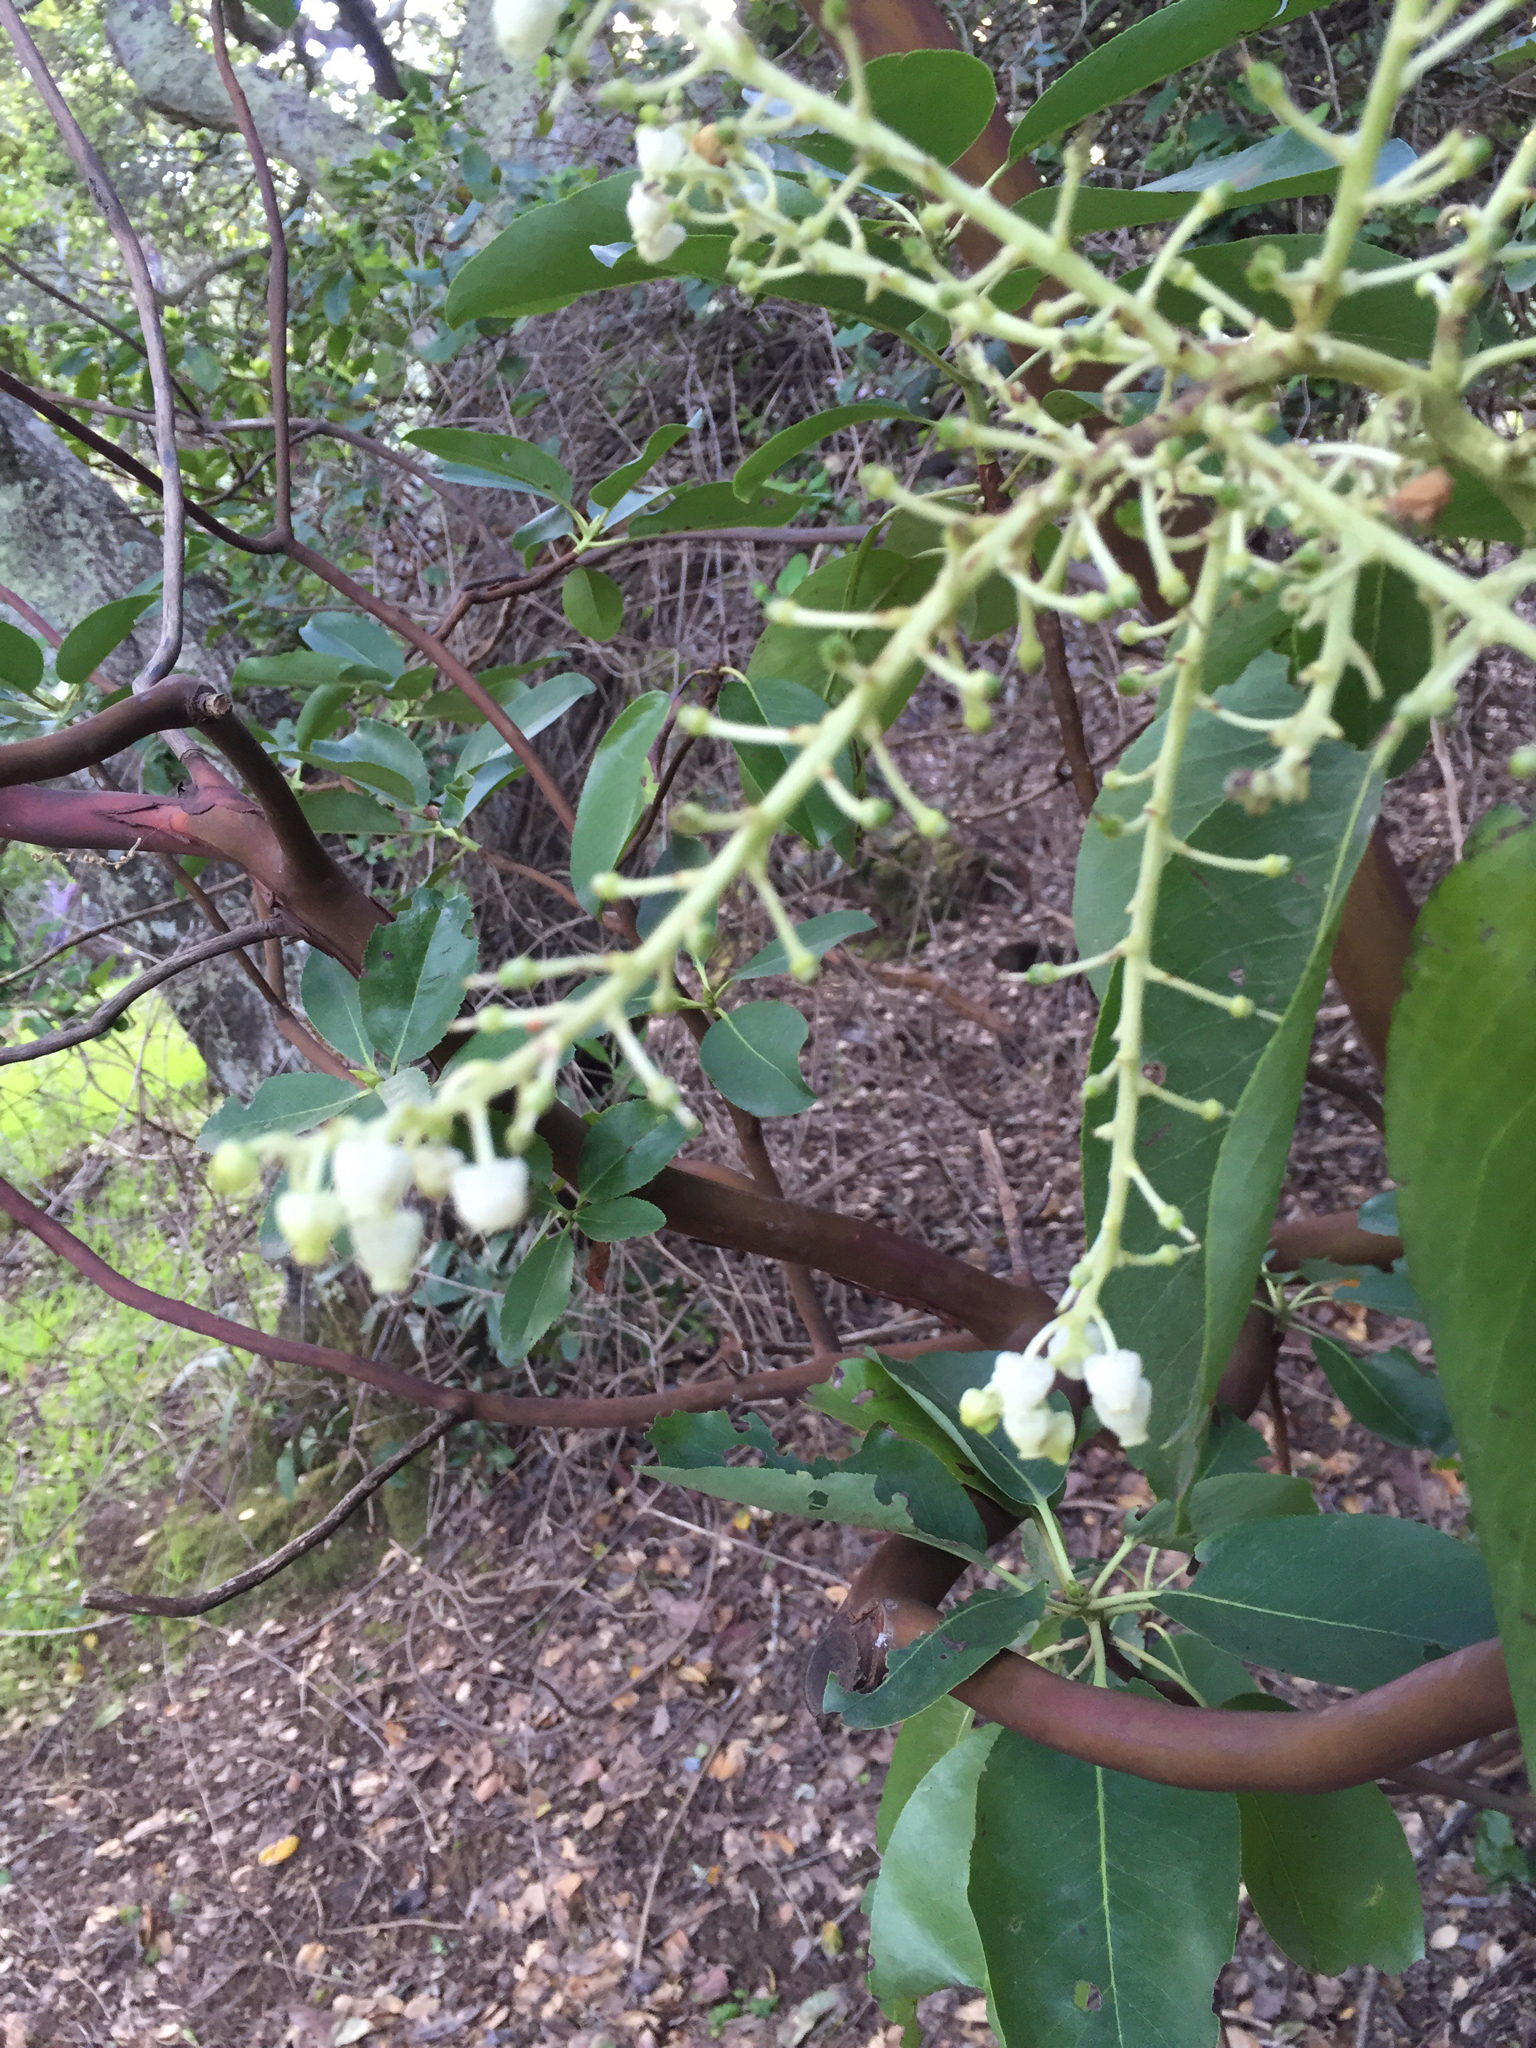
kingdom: Plantae
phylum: Tracheophyta
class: Magnoliopsida
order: Ericales
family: Ericaceae
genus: Arbutus
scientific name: Arbutus menziesii
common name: Pacific madrone
